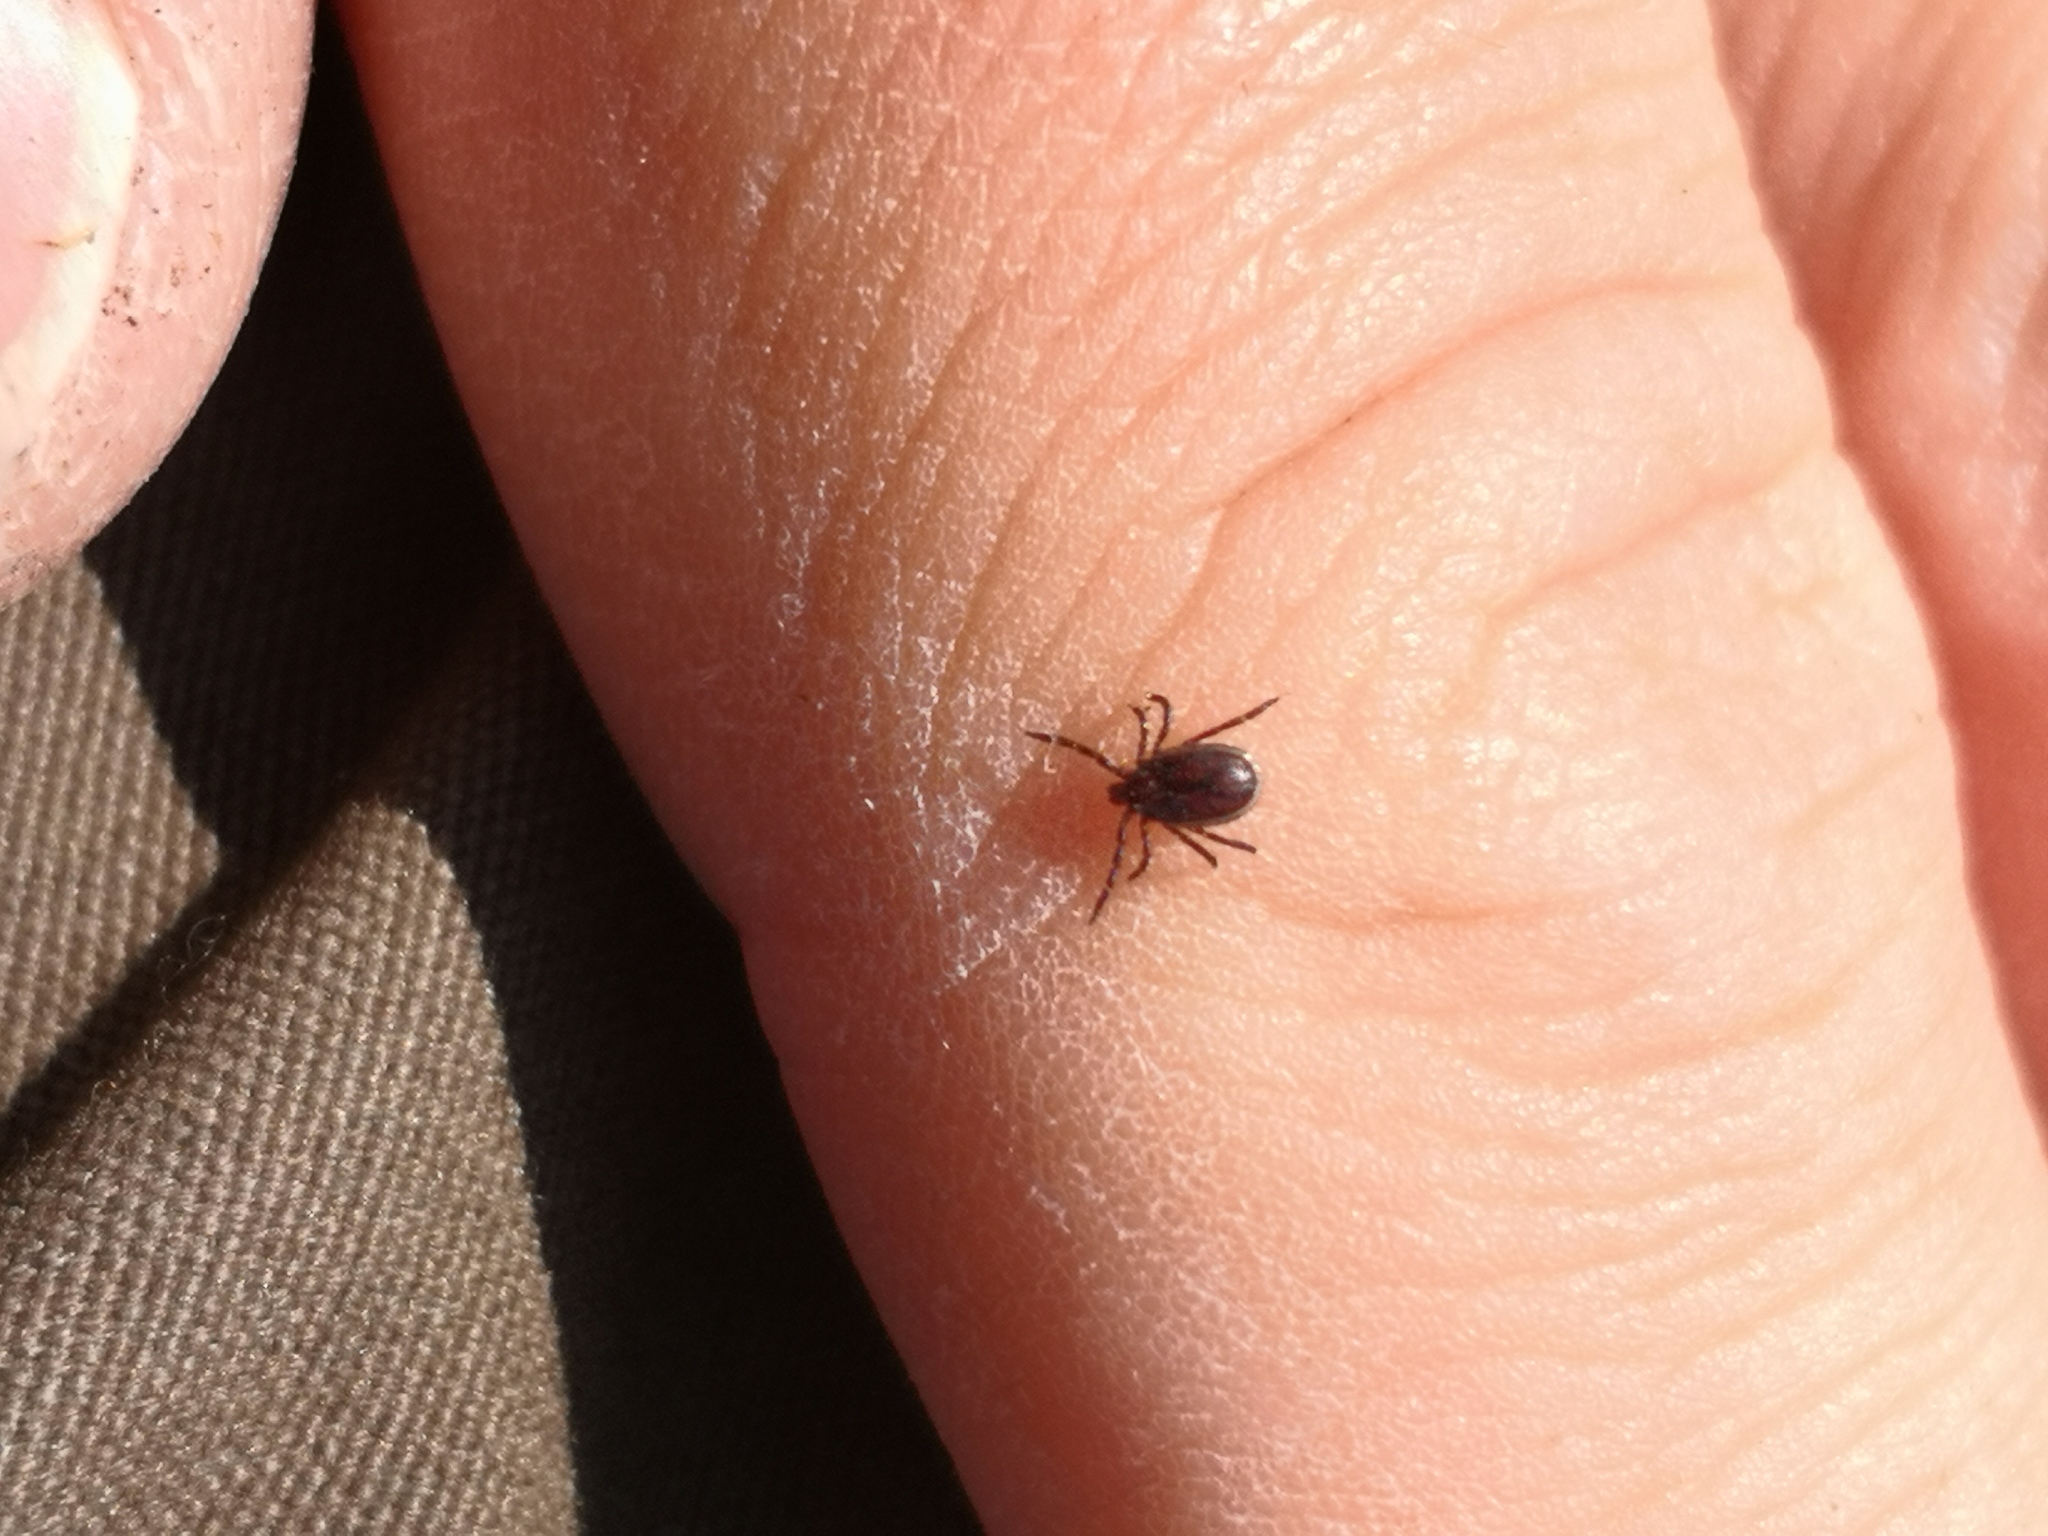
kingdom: Animalia
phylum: Arthropoda
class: Arachnida
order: Ixodida
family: Ixodidae
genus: Ixodes
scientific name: Ixodes ricinus
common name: Castor bean tick
